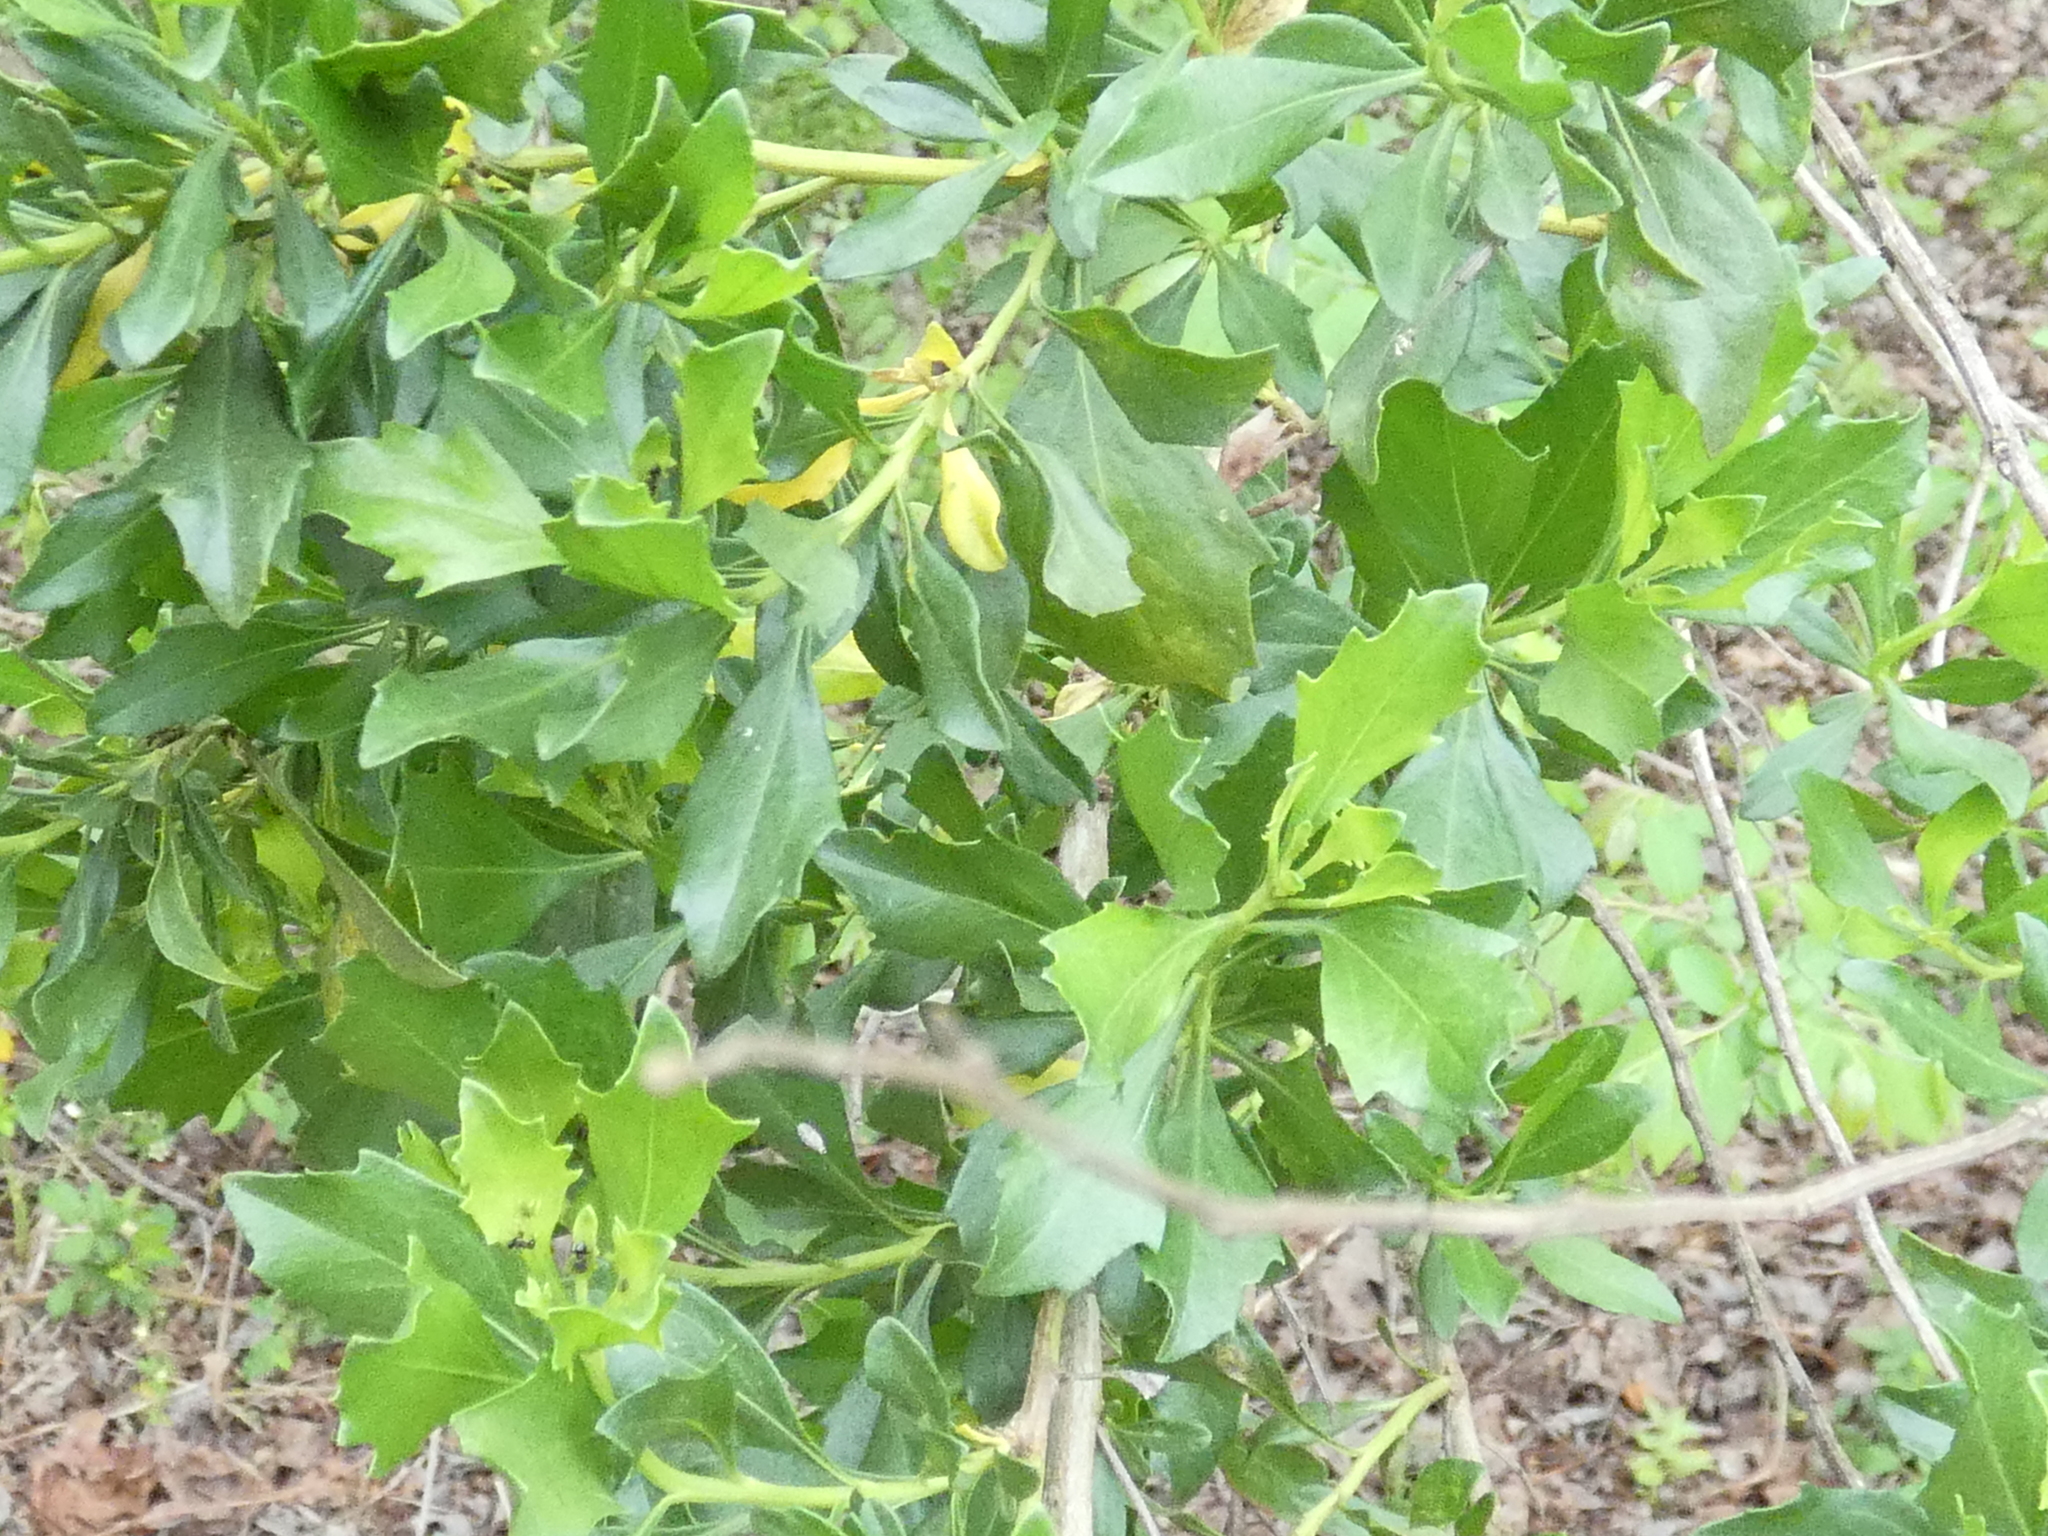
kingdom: Plantae
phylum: Tracheophyta
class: Magnoliopsida
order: Asterales
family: Asteraceae
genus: Baccharis
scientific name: Baccharis halimifolia
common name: Eastern baccharis
